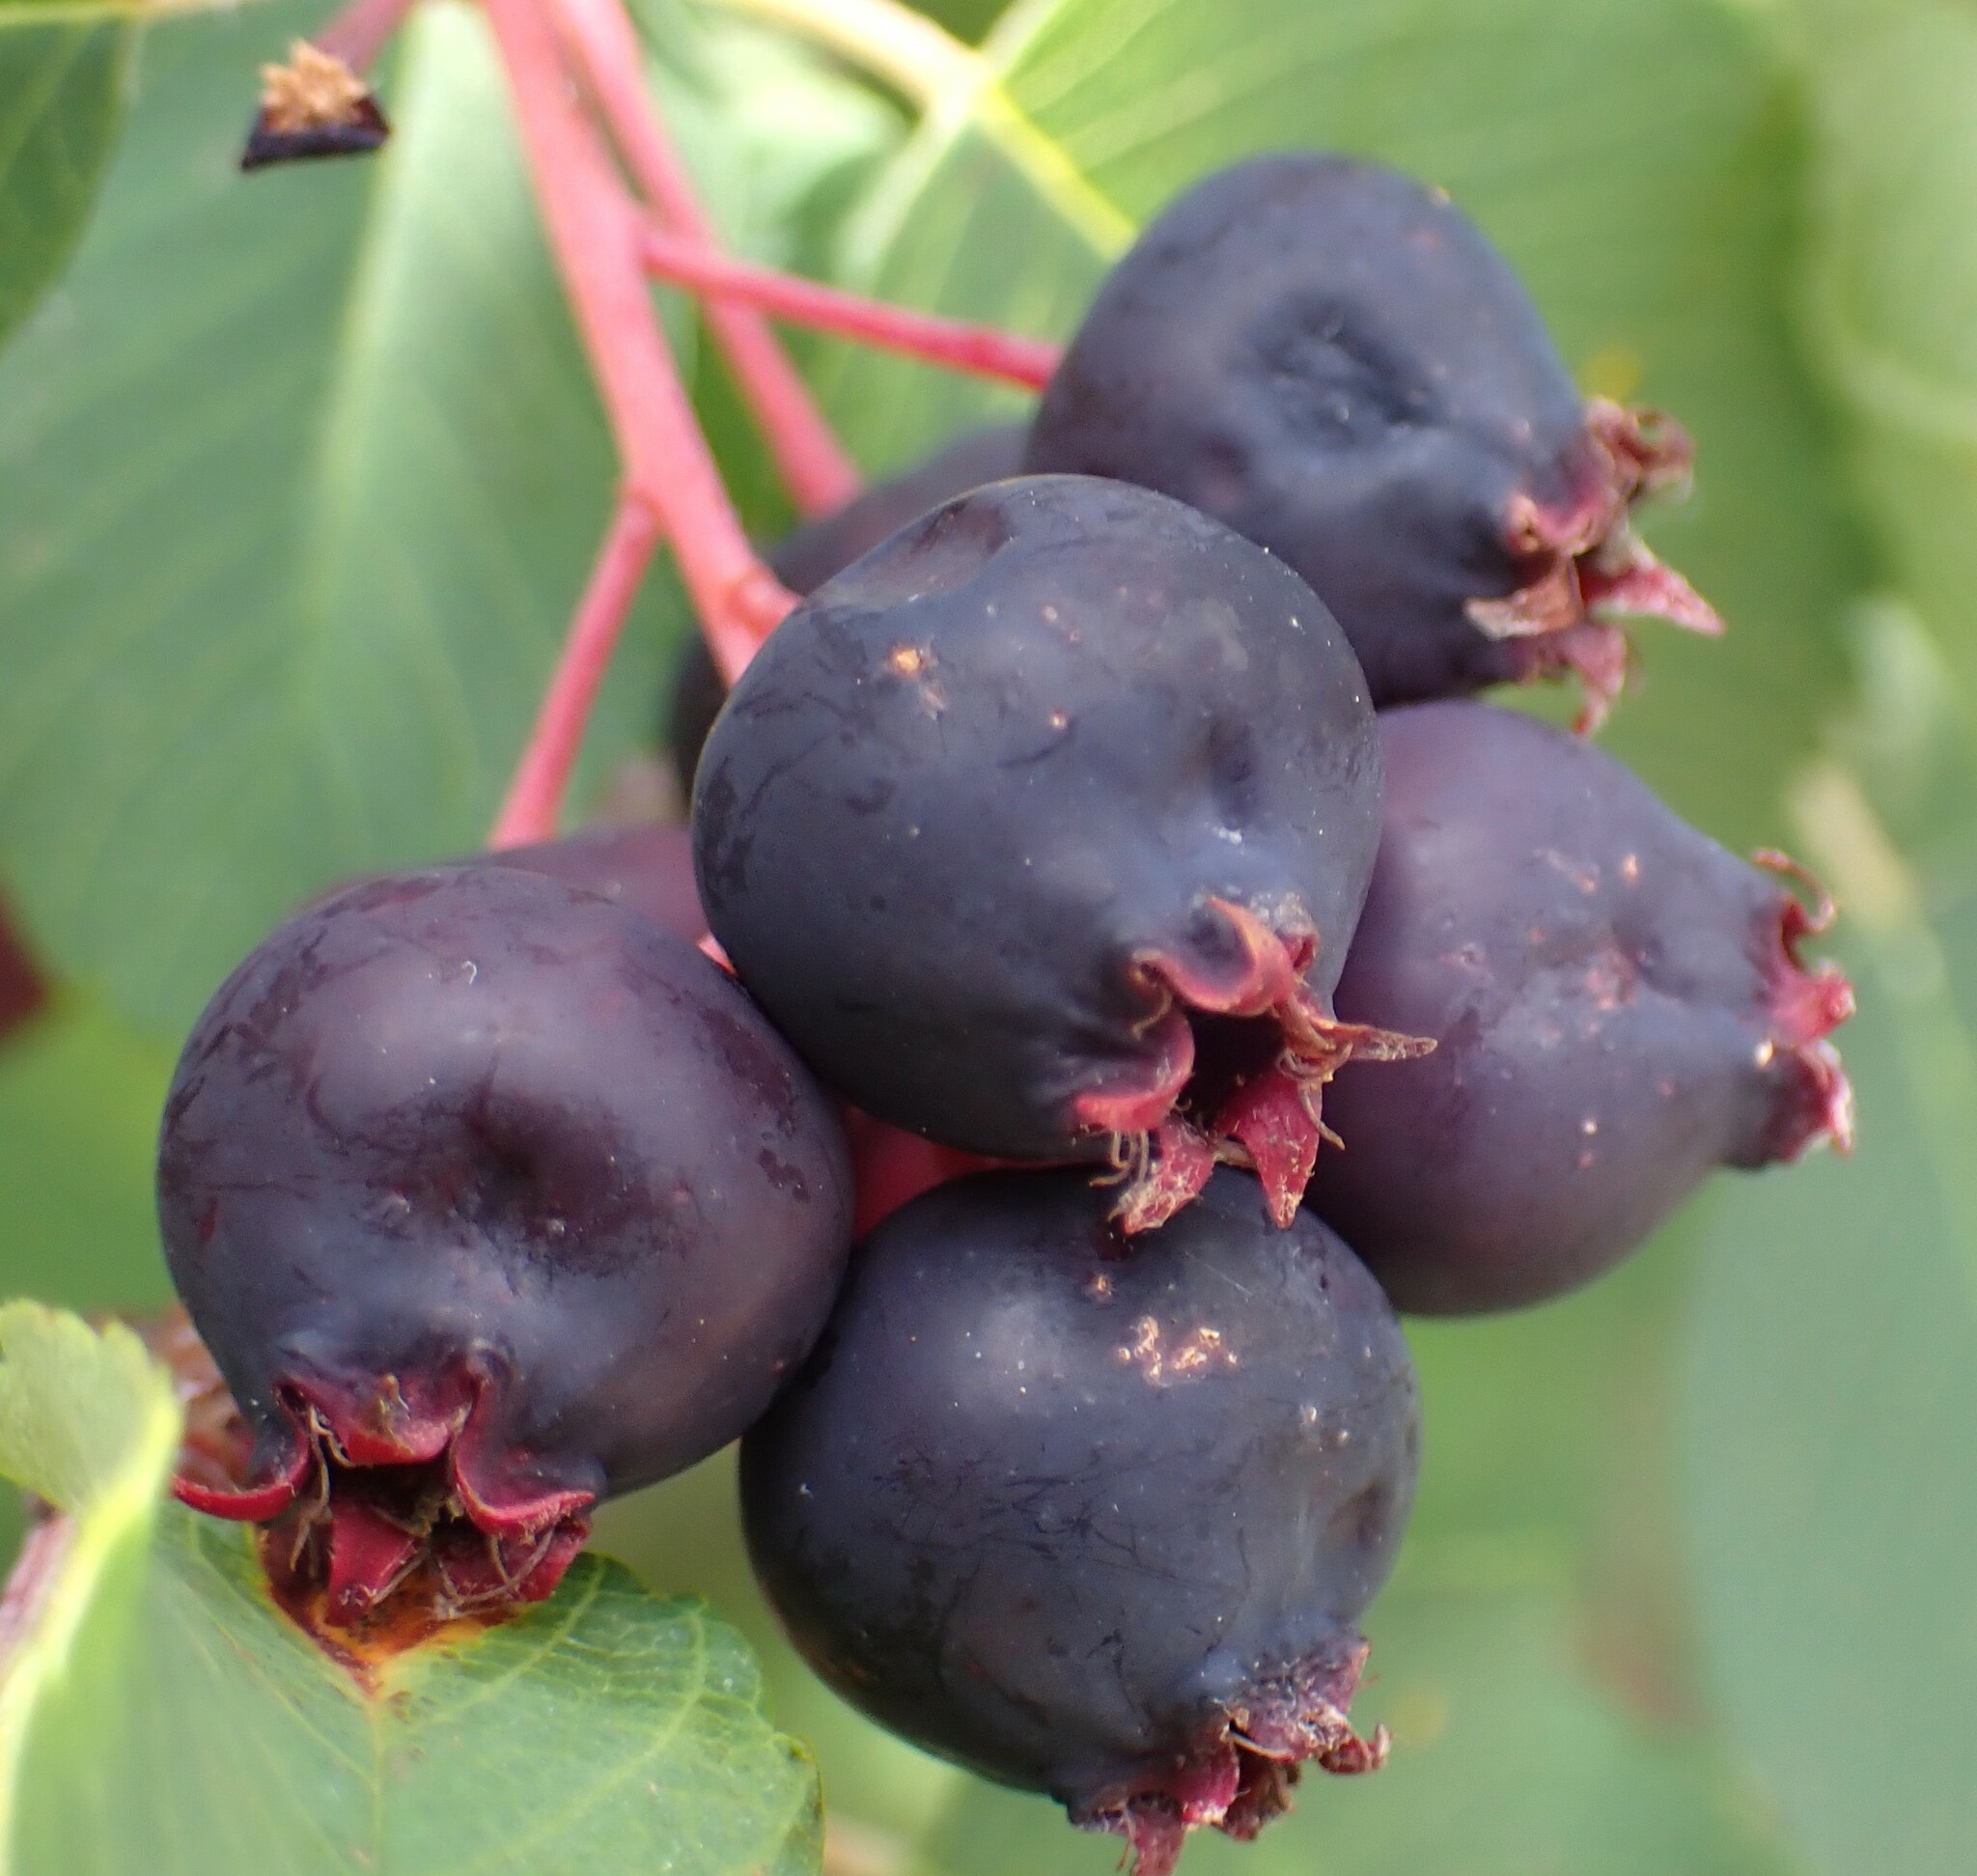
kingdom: Plantae
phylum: Tracheophyta
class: Magnoliopsida
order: Rosales
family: Rosaceae
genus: Amelanchier
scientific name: Amelanchier alnifolia
